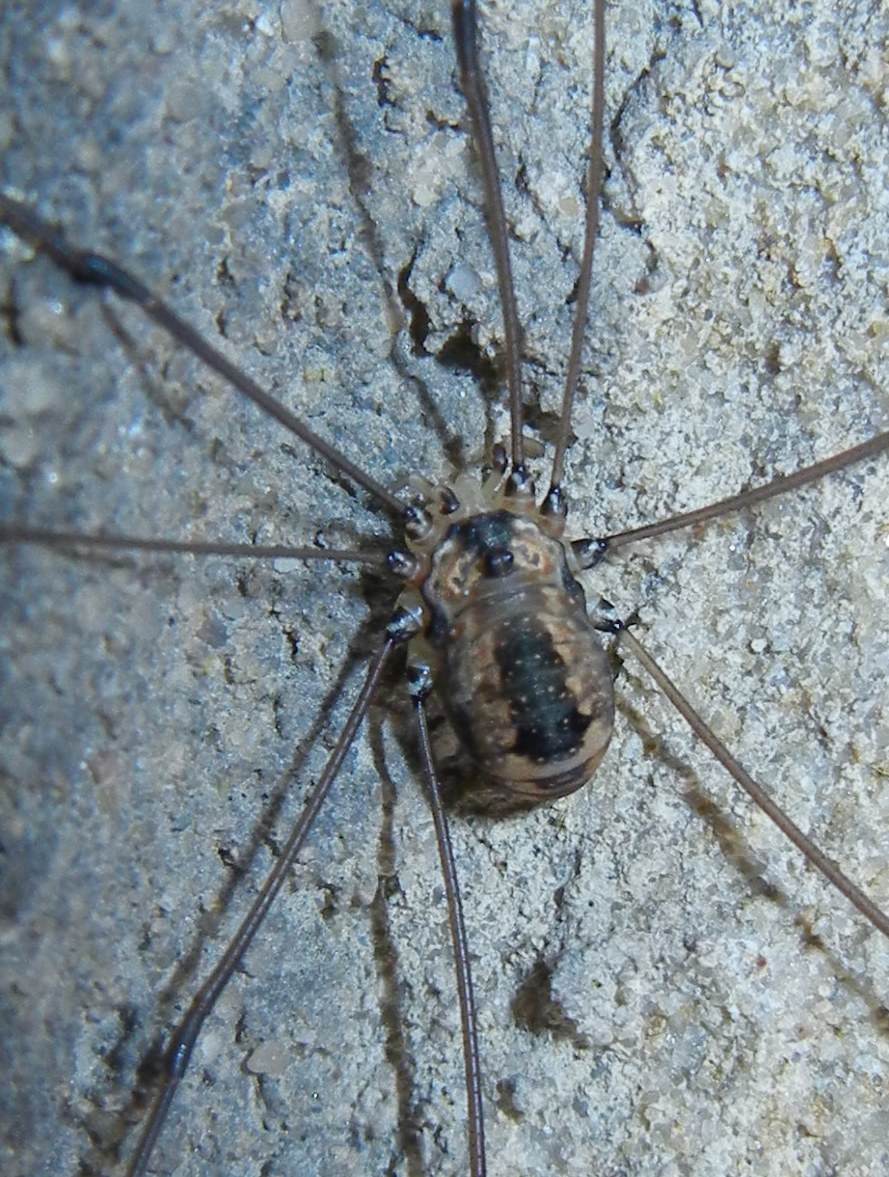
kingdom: Animalia
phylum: Arthropoda
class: Arachnida
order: Opiliones
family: Sclerosomatidae
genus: Leiobunum
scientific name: Leiobunum rotundum
